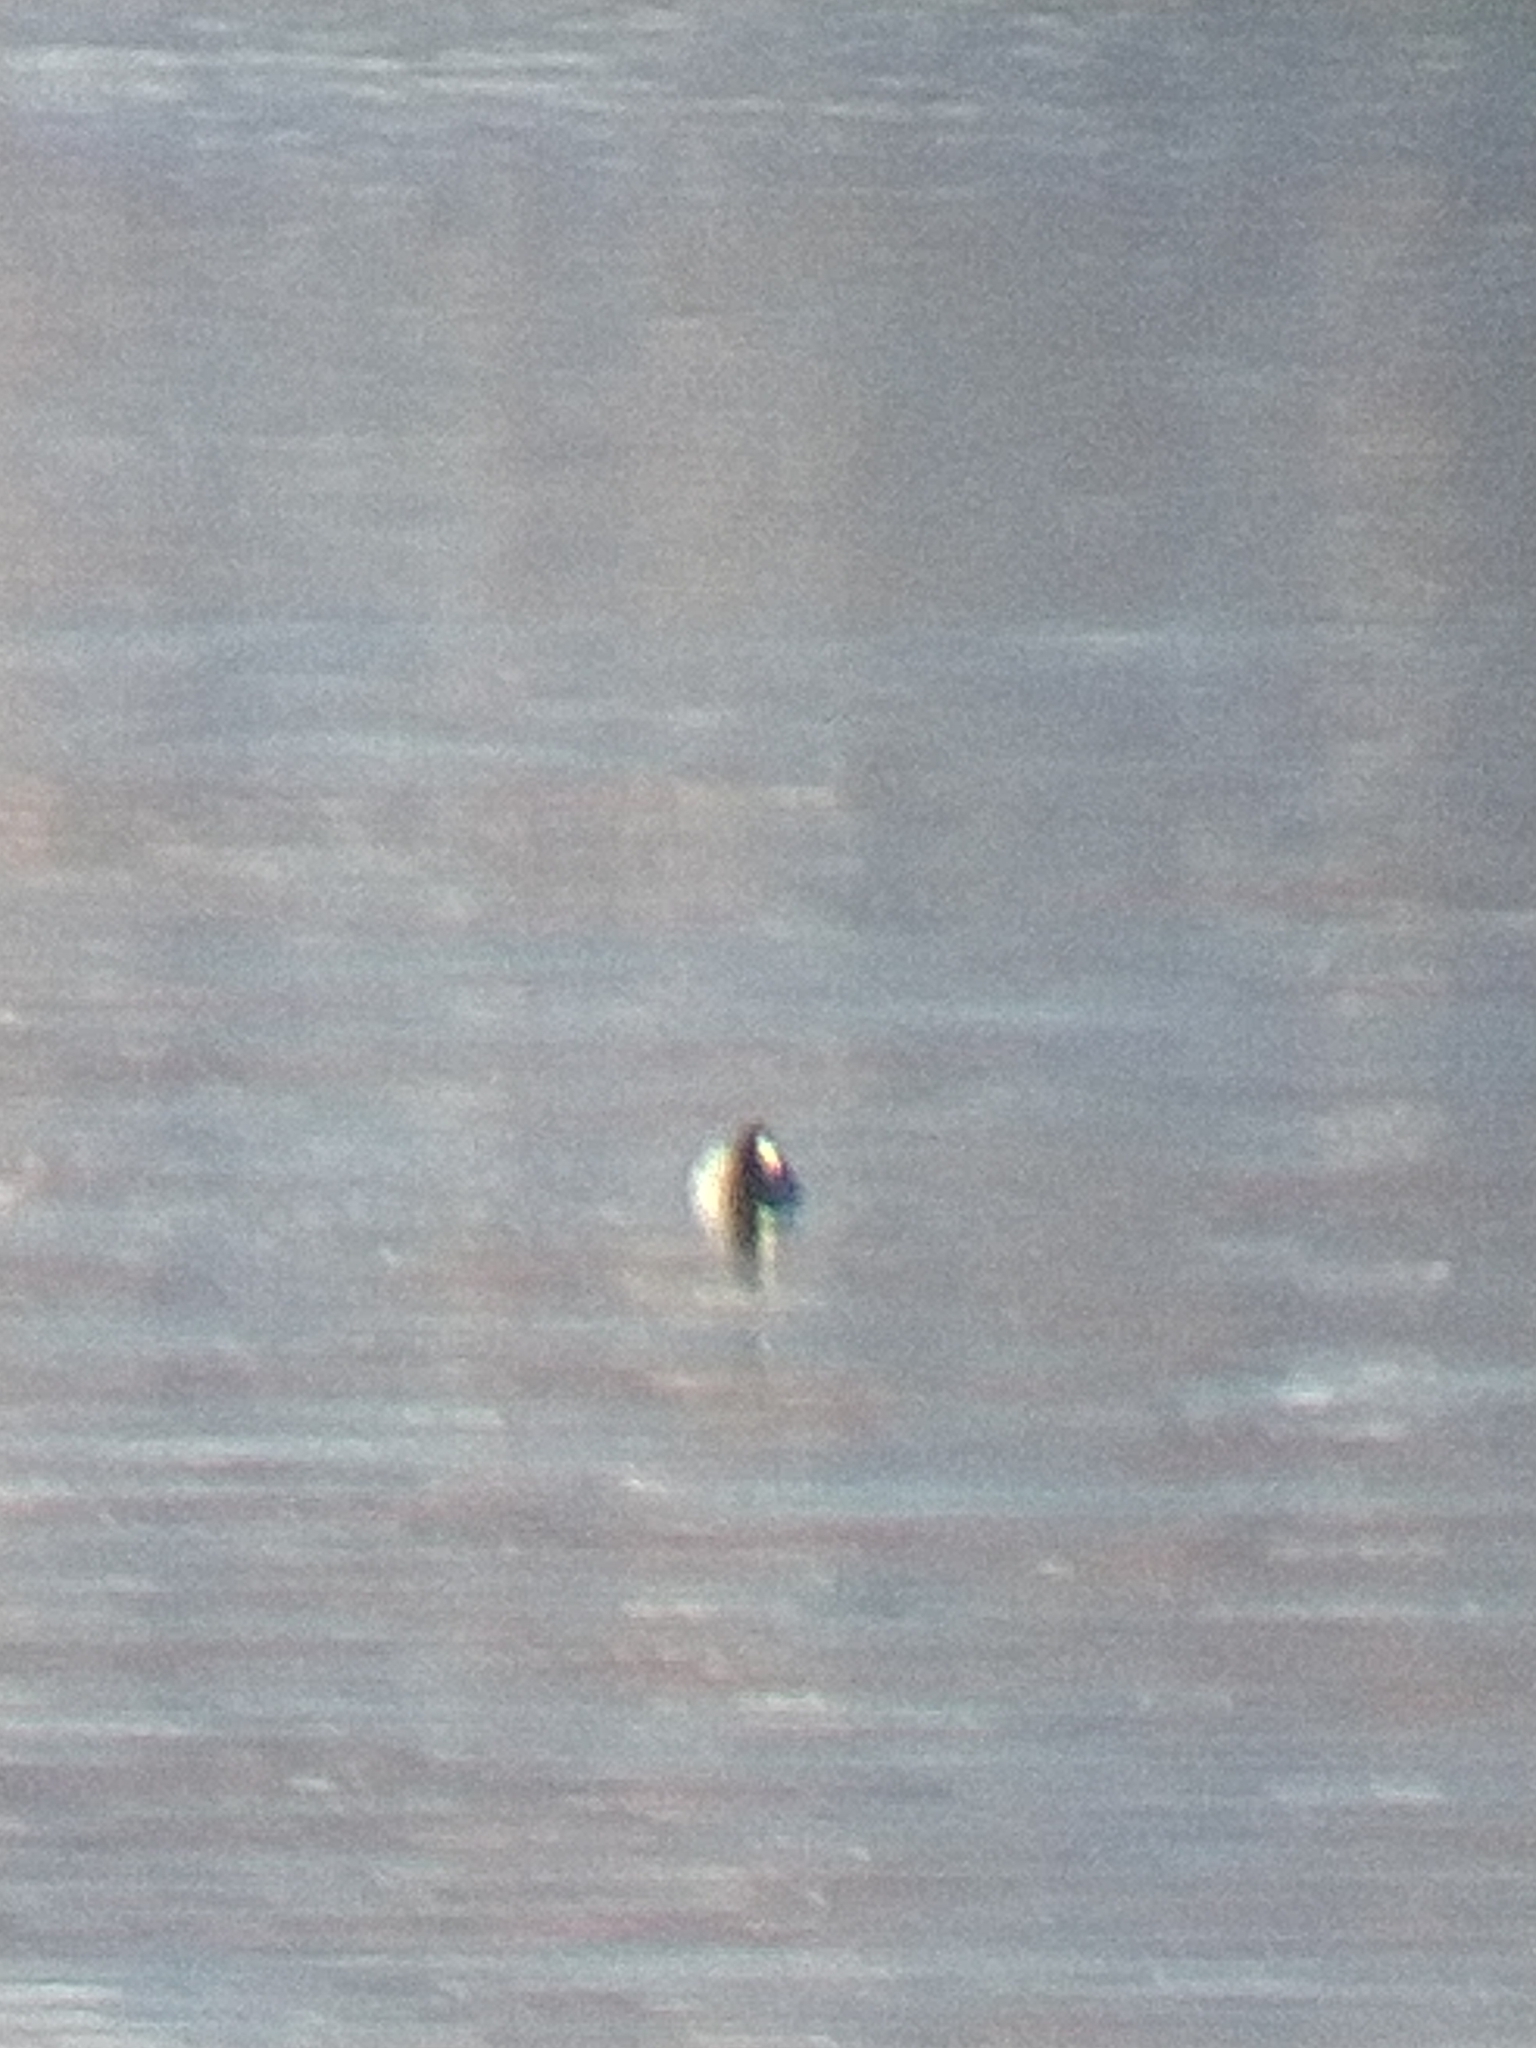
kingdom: Animalia
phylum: Chordata
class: Aves
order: Gruiformes
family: Rallidae
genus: Fulica
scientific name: Fulica leucoptera
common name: White-winged coot
